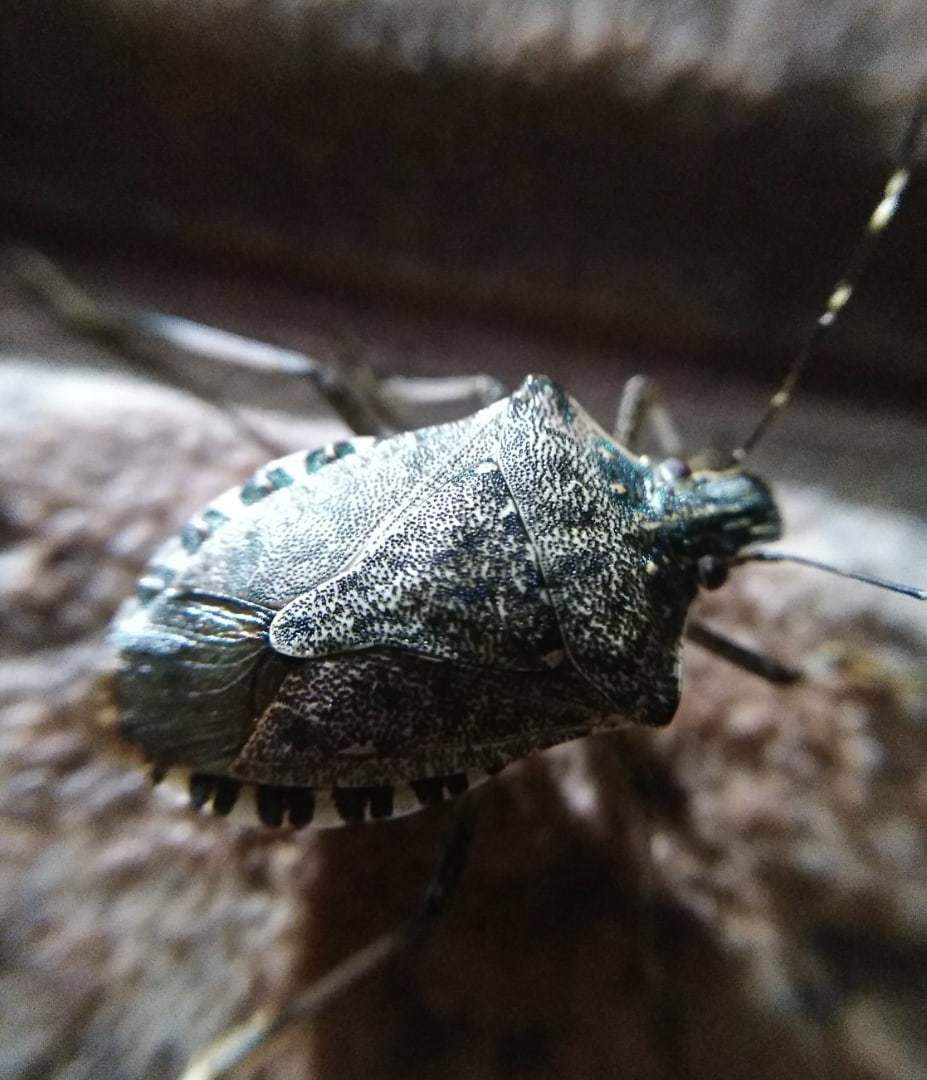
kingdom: Animalia
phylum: Arthropoda
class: Insecta
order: Hemiptera
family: Pentatomidae
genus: Halyomorpha
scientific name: Halyomorpha halys
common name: Brown marmorated stink bug
